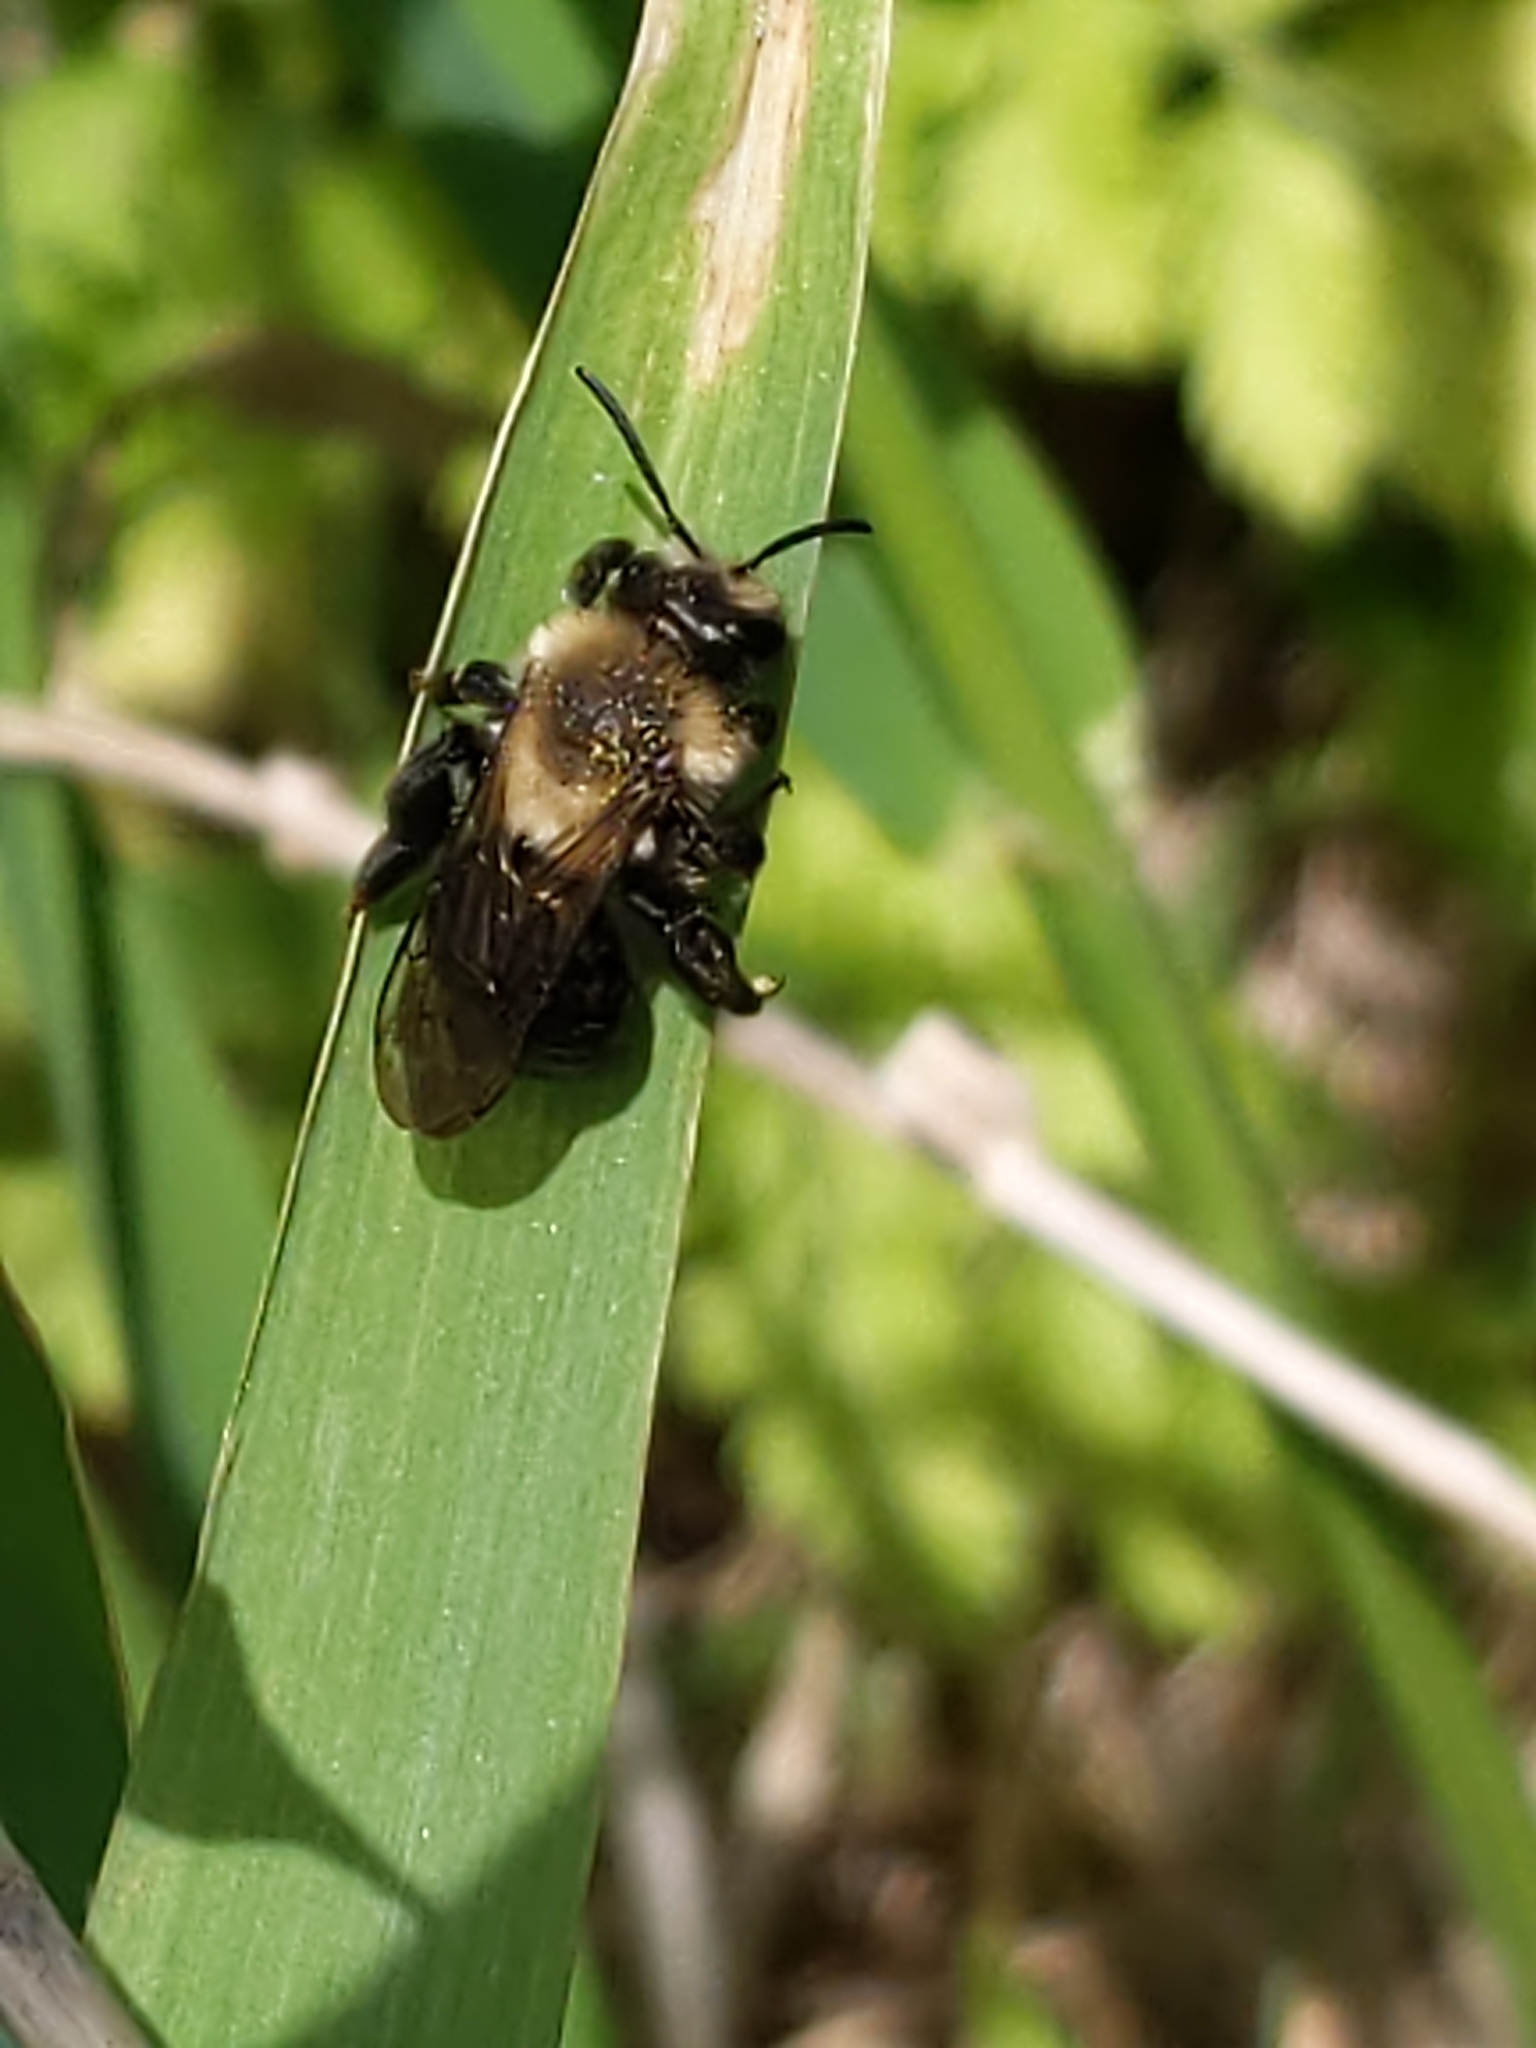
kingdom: Animalia
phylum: Arthropoda
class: Insecta
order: Hymenoptera
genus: Melandrena
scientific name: Melandrena
